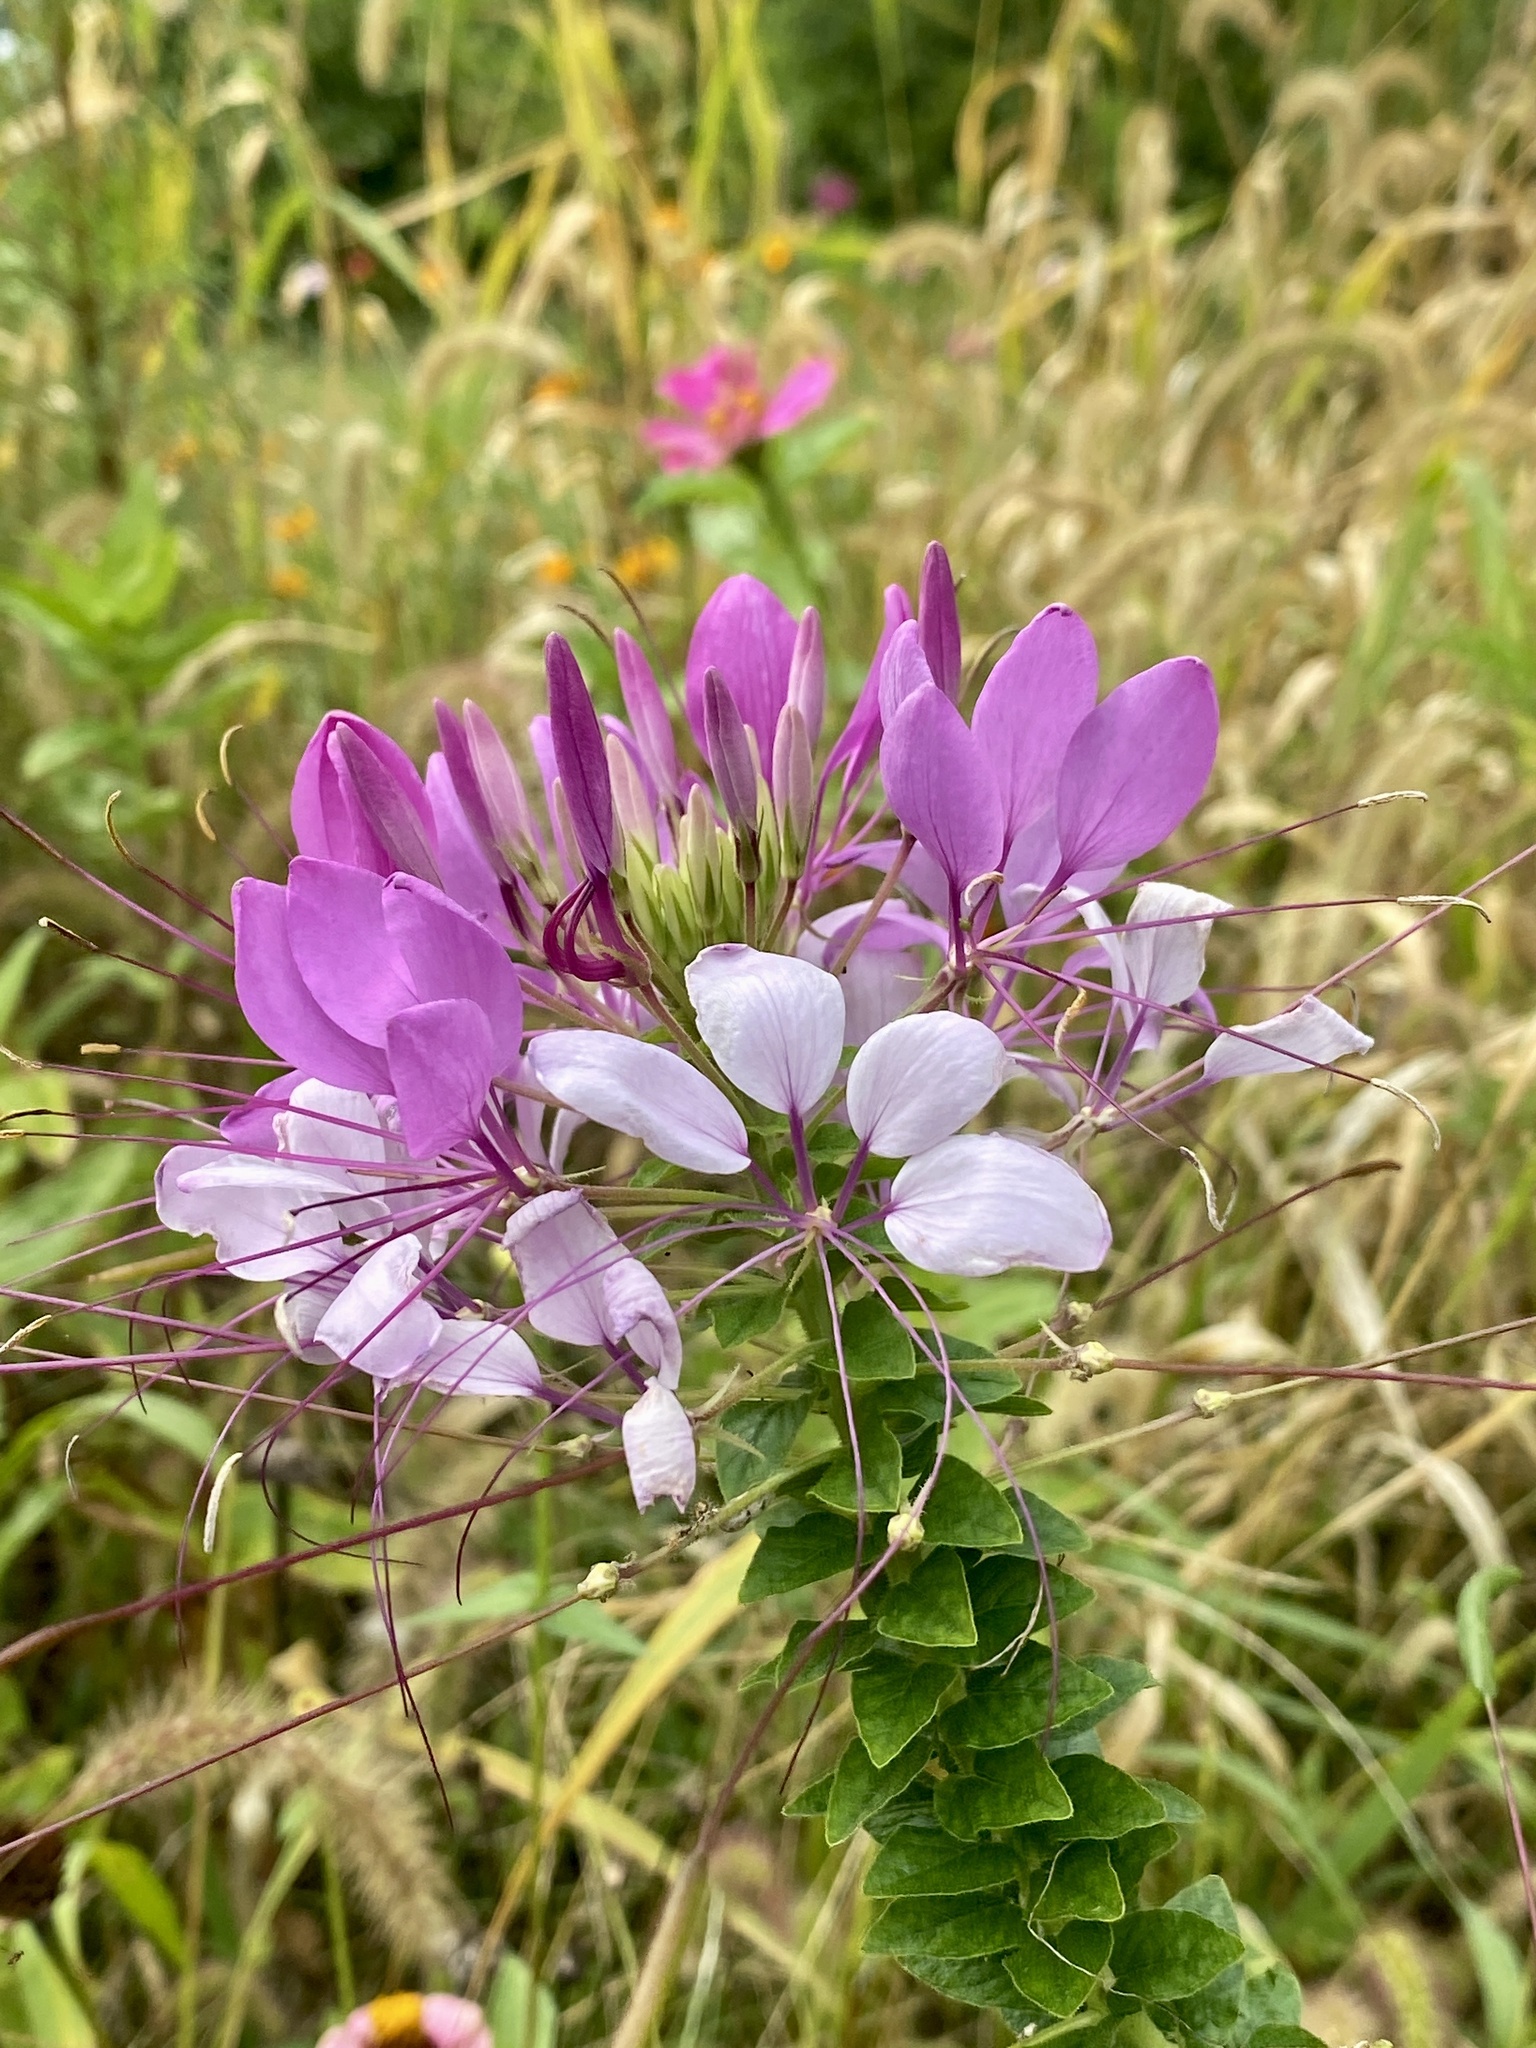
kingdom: Plantae
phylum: Tracheophyta
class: Magnoliopsida
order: Brassicales
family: Cleomaceae
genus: Tarenaya
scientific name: Tarenaya houtteana
